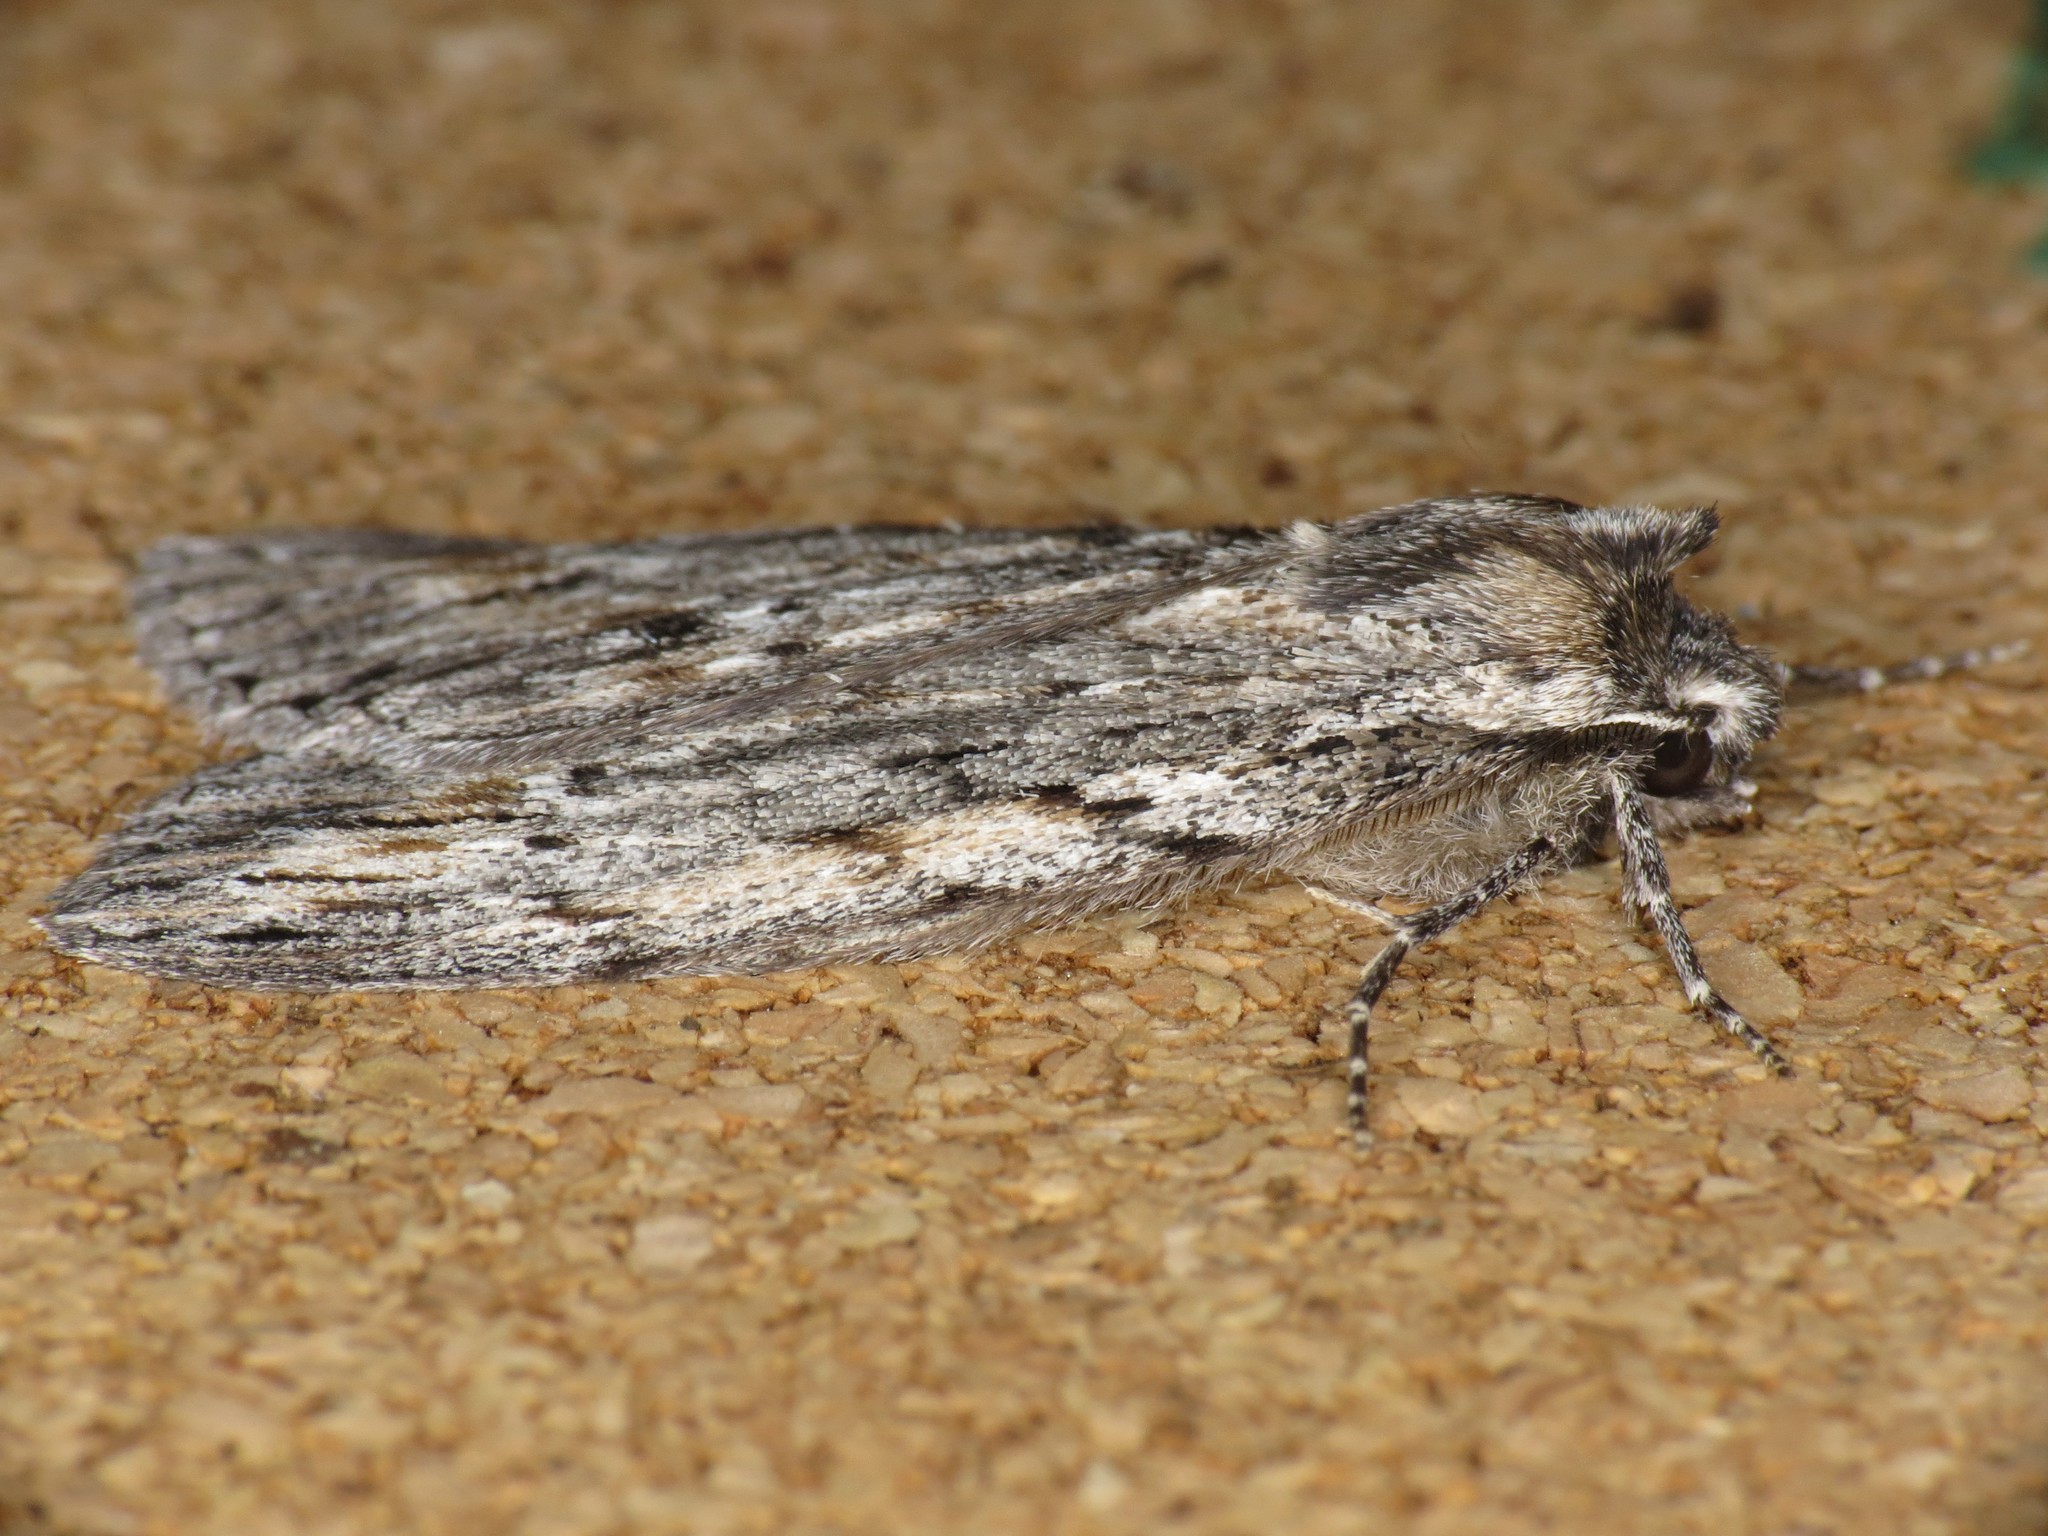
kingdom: Animalia
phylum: Arthropoda
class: Insecta
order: Lepidoptera
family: Geometridae
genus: Chlenias
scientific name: Chlenias banksiaria
